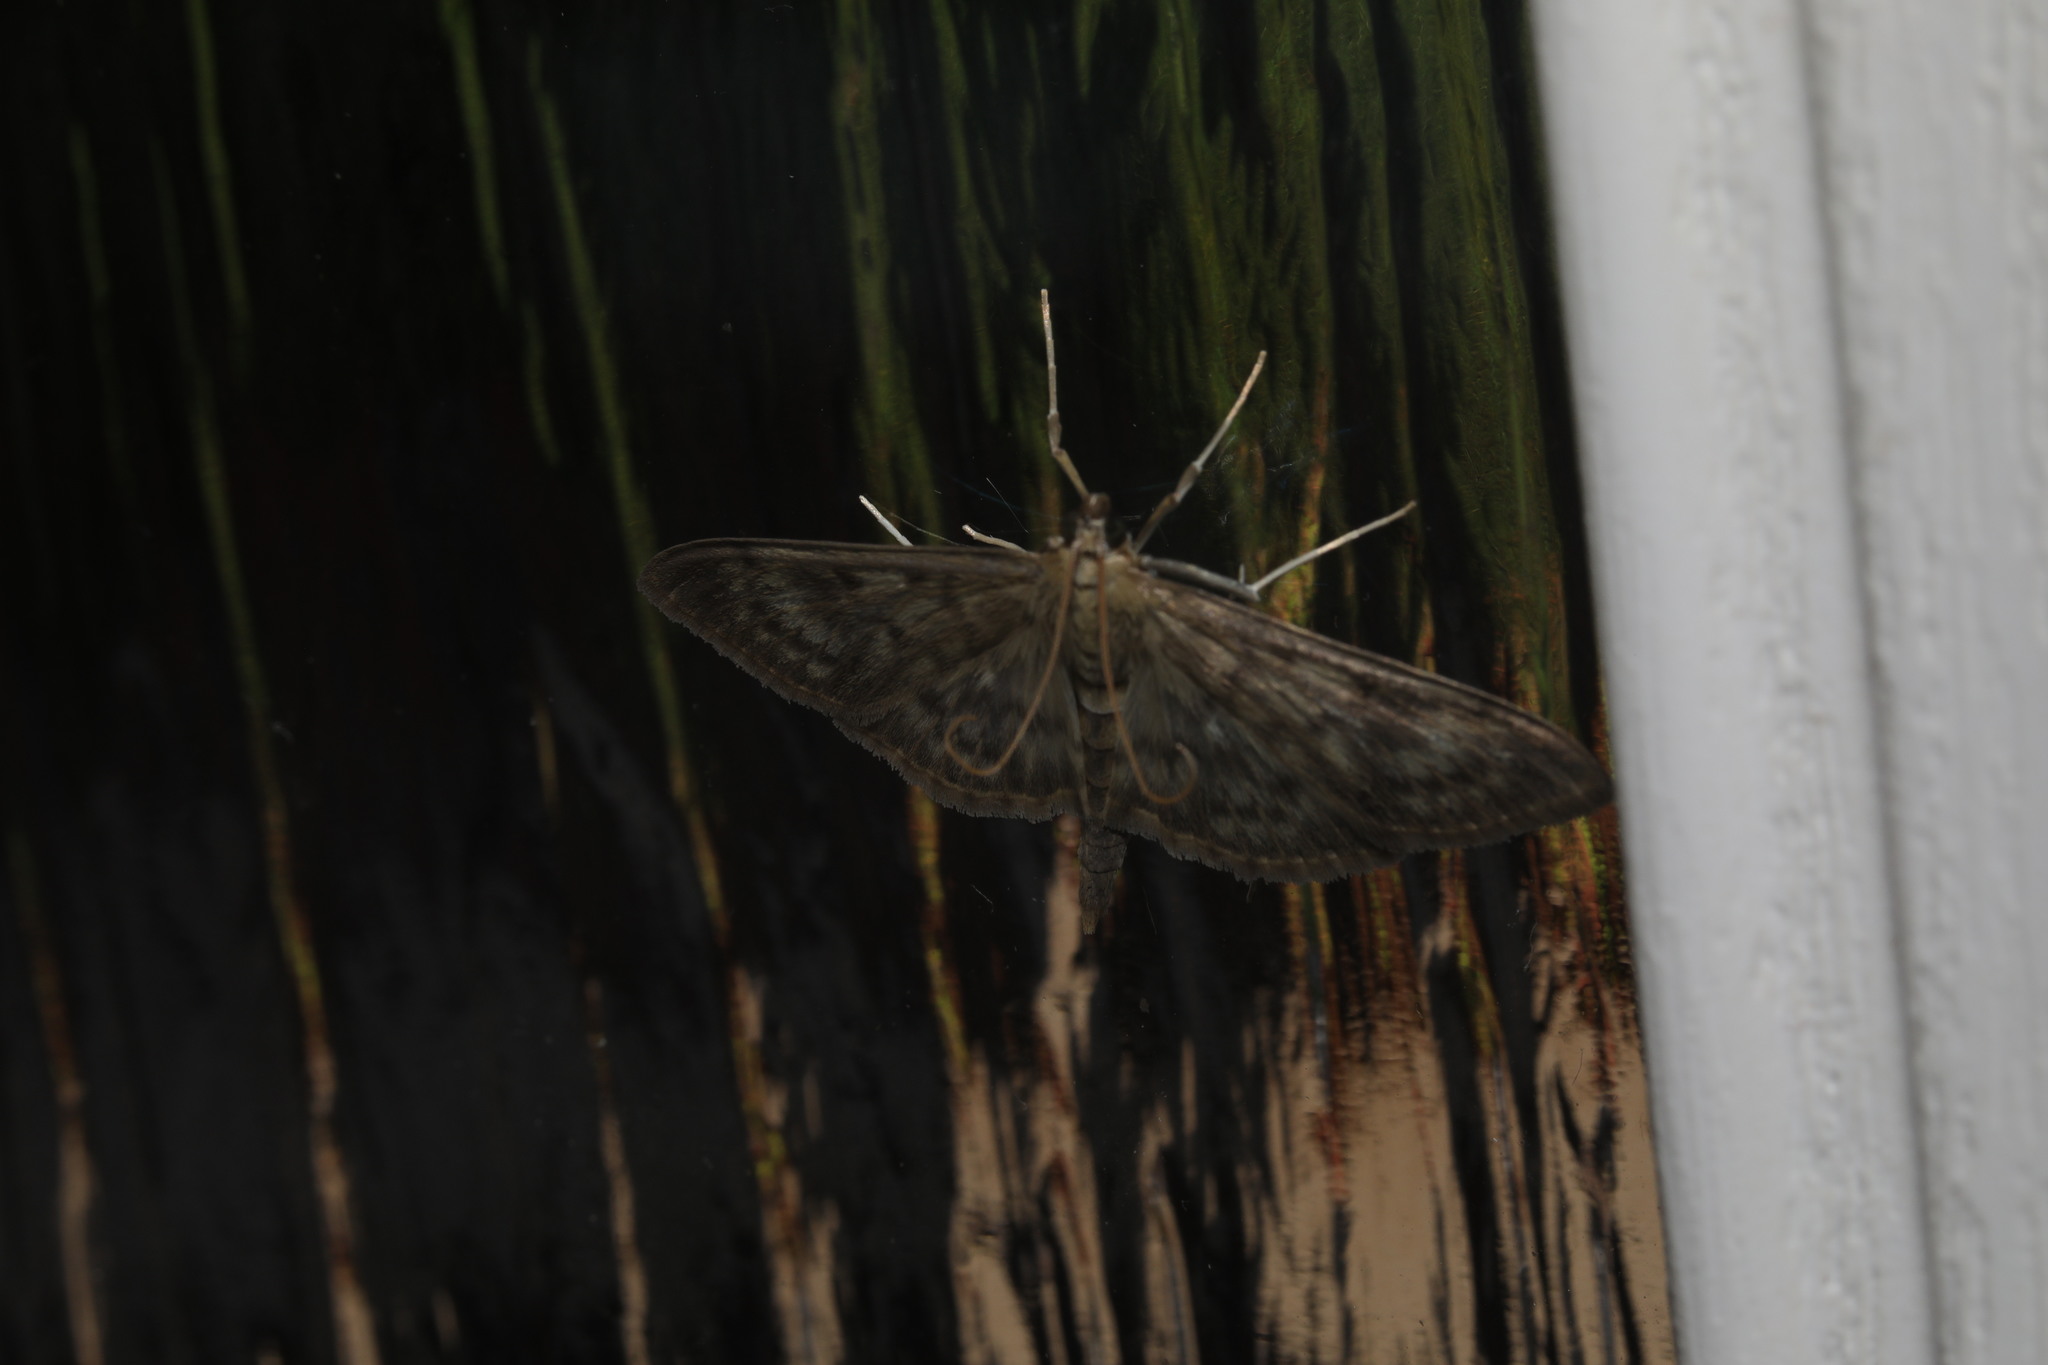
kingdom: Animalia
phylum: Arthropoda
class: Insecta
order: Lepidoptera
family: Crambidae
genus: Patania
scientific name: Patania ruralis
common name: Mother of pearl
